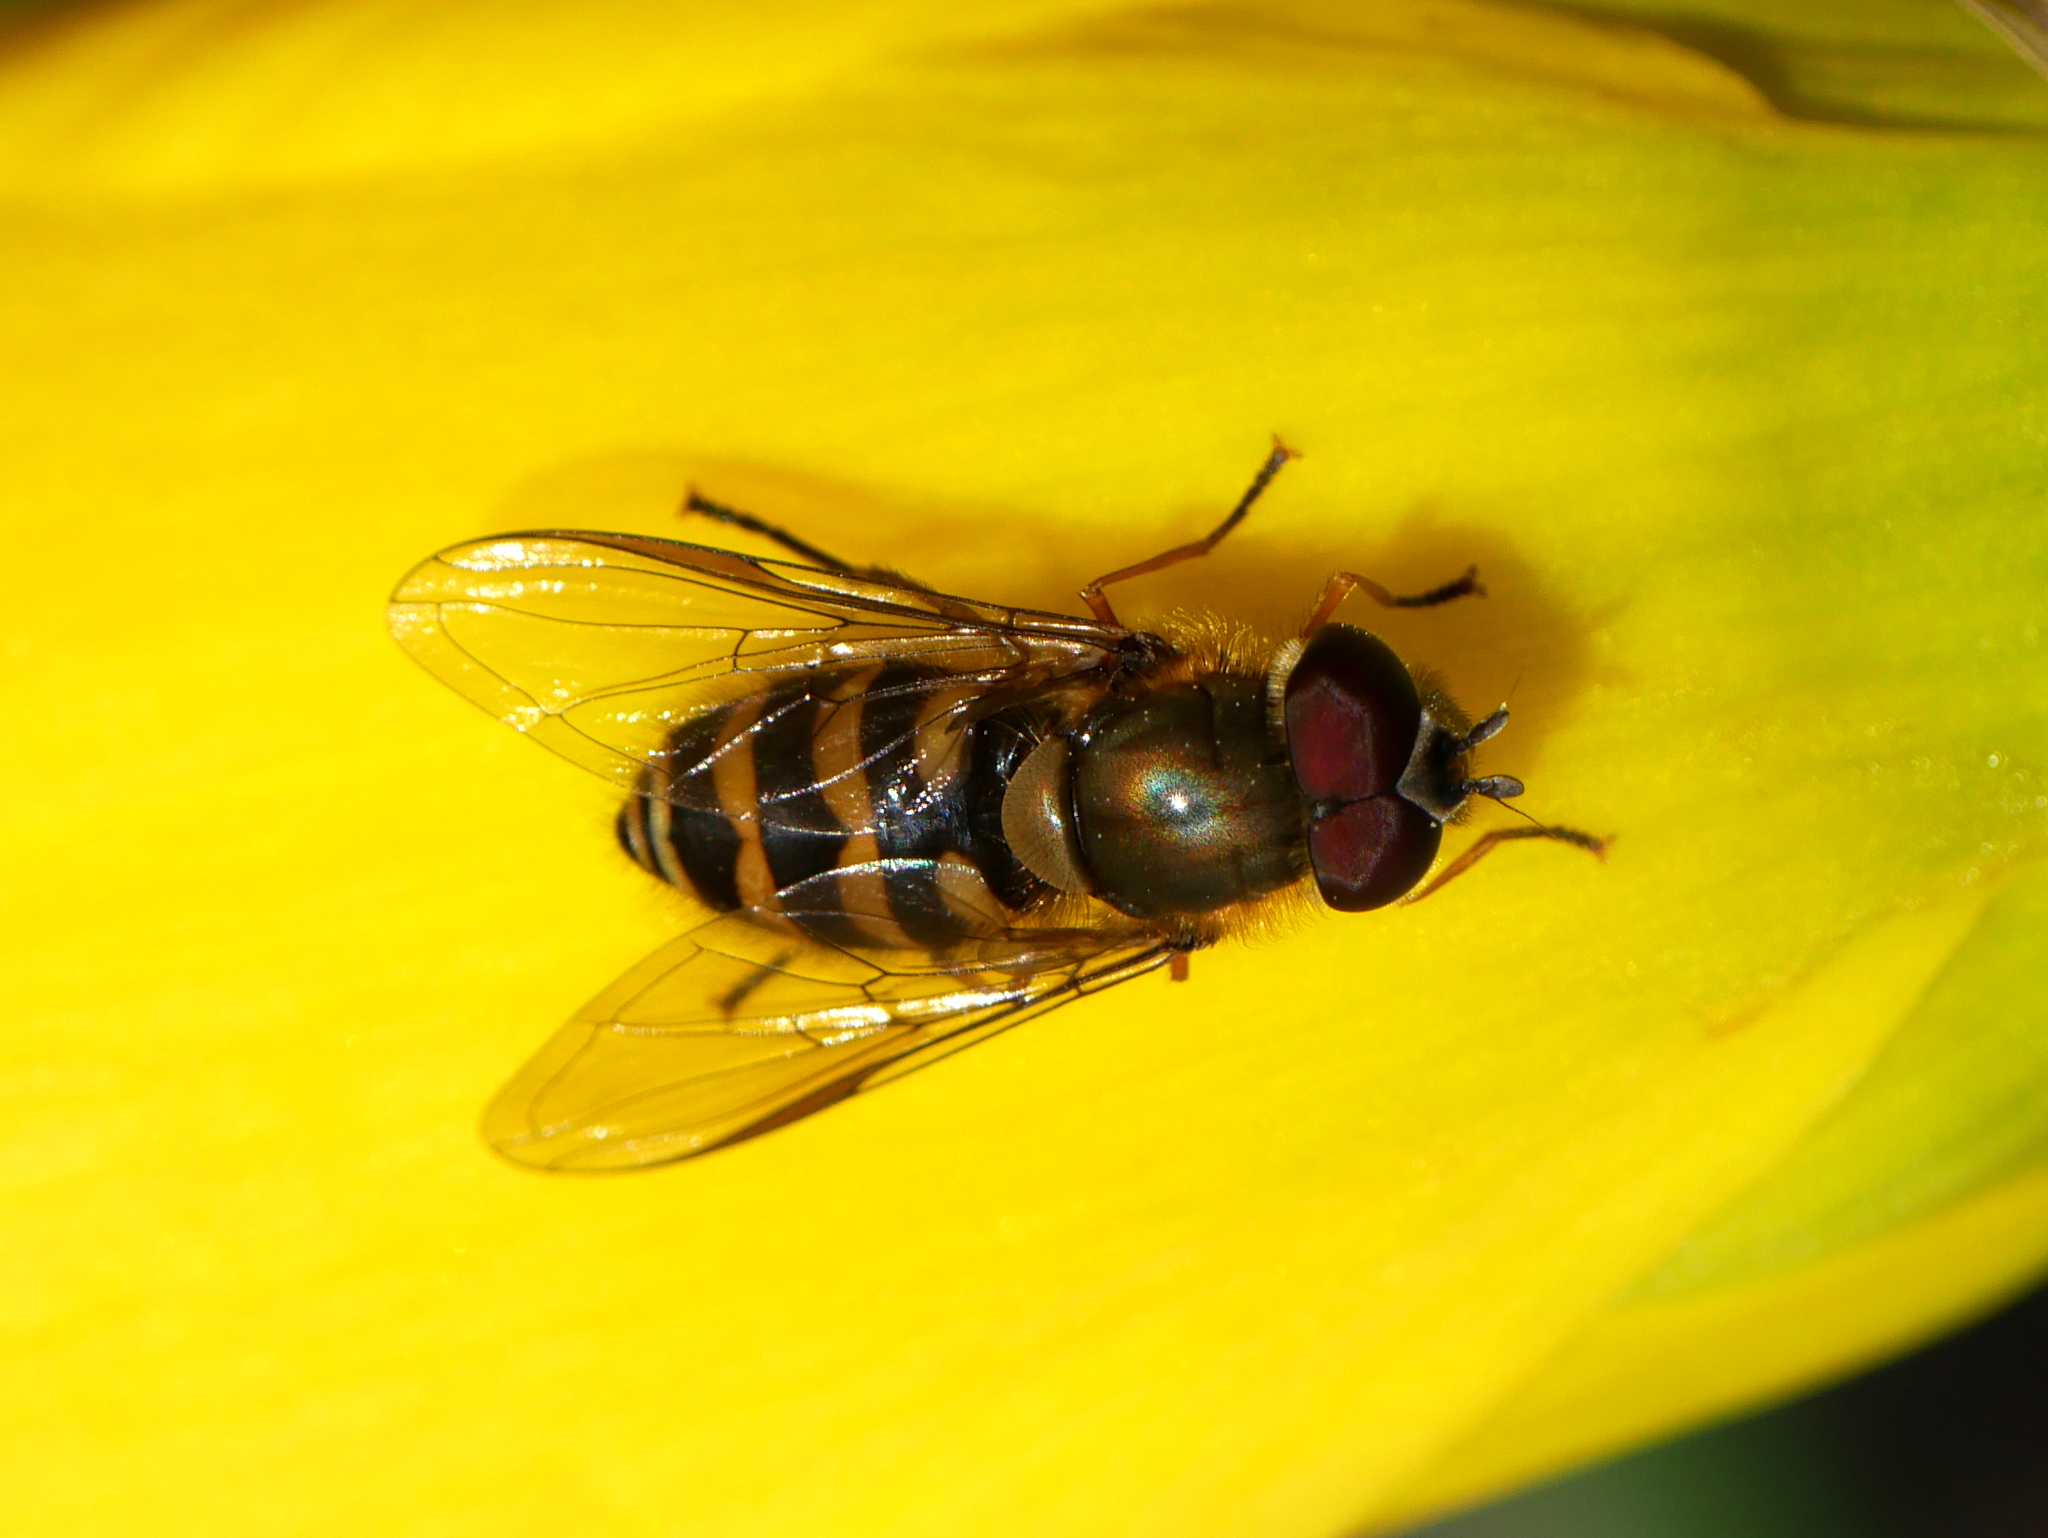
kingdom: Animalia
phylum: Arthropoda
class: Insecta
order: Diptera
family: Syrphidae
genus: Syrphus
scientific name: Syrphus torvus
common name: Hairy-eyed flower fly
